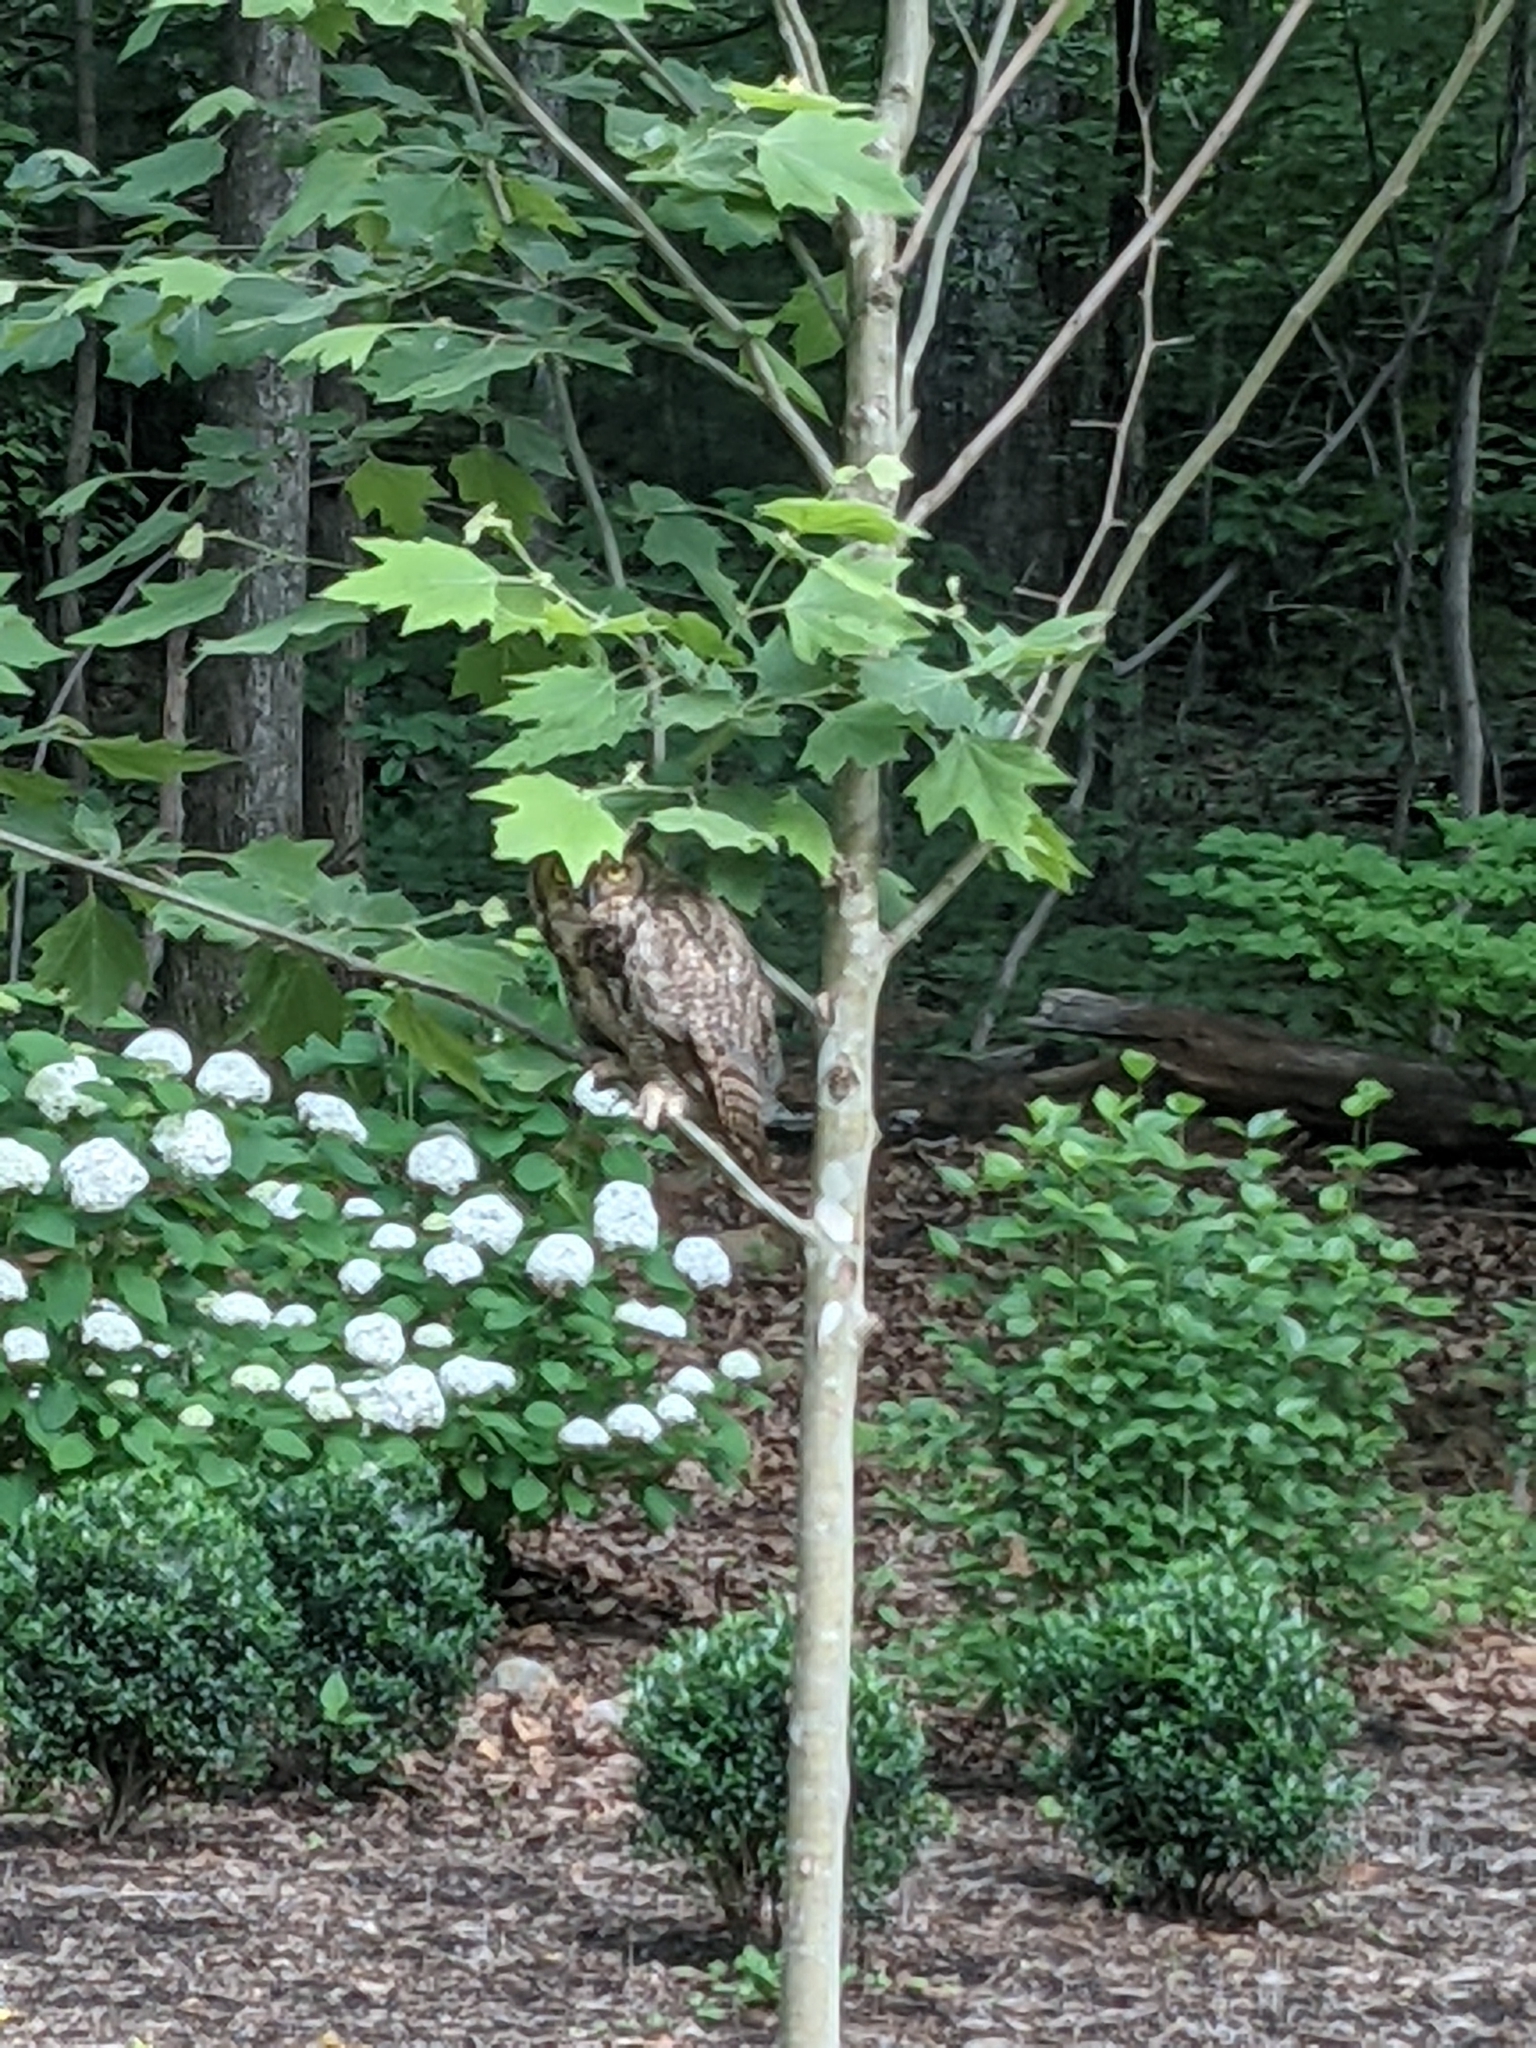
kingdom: Animalia
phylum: Chordata
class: Aves
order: Strigiformes
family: Strigidae
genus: Bubo
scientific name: Bubo virginianus
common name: Great horned owl
